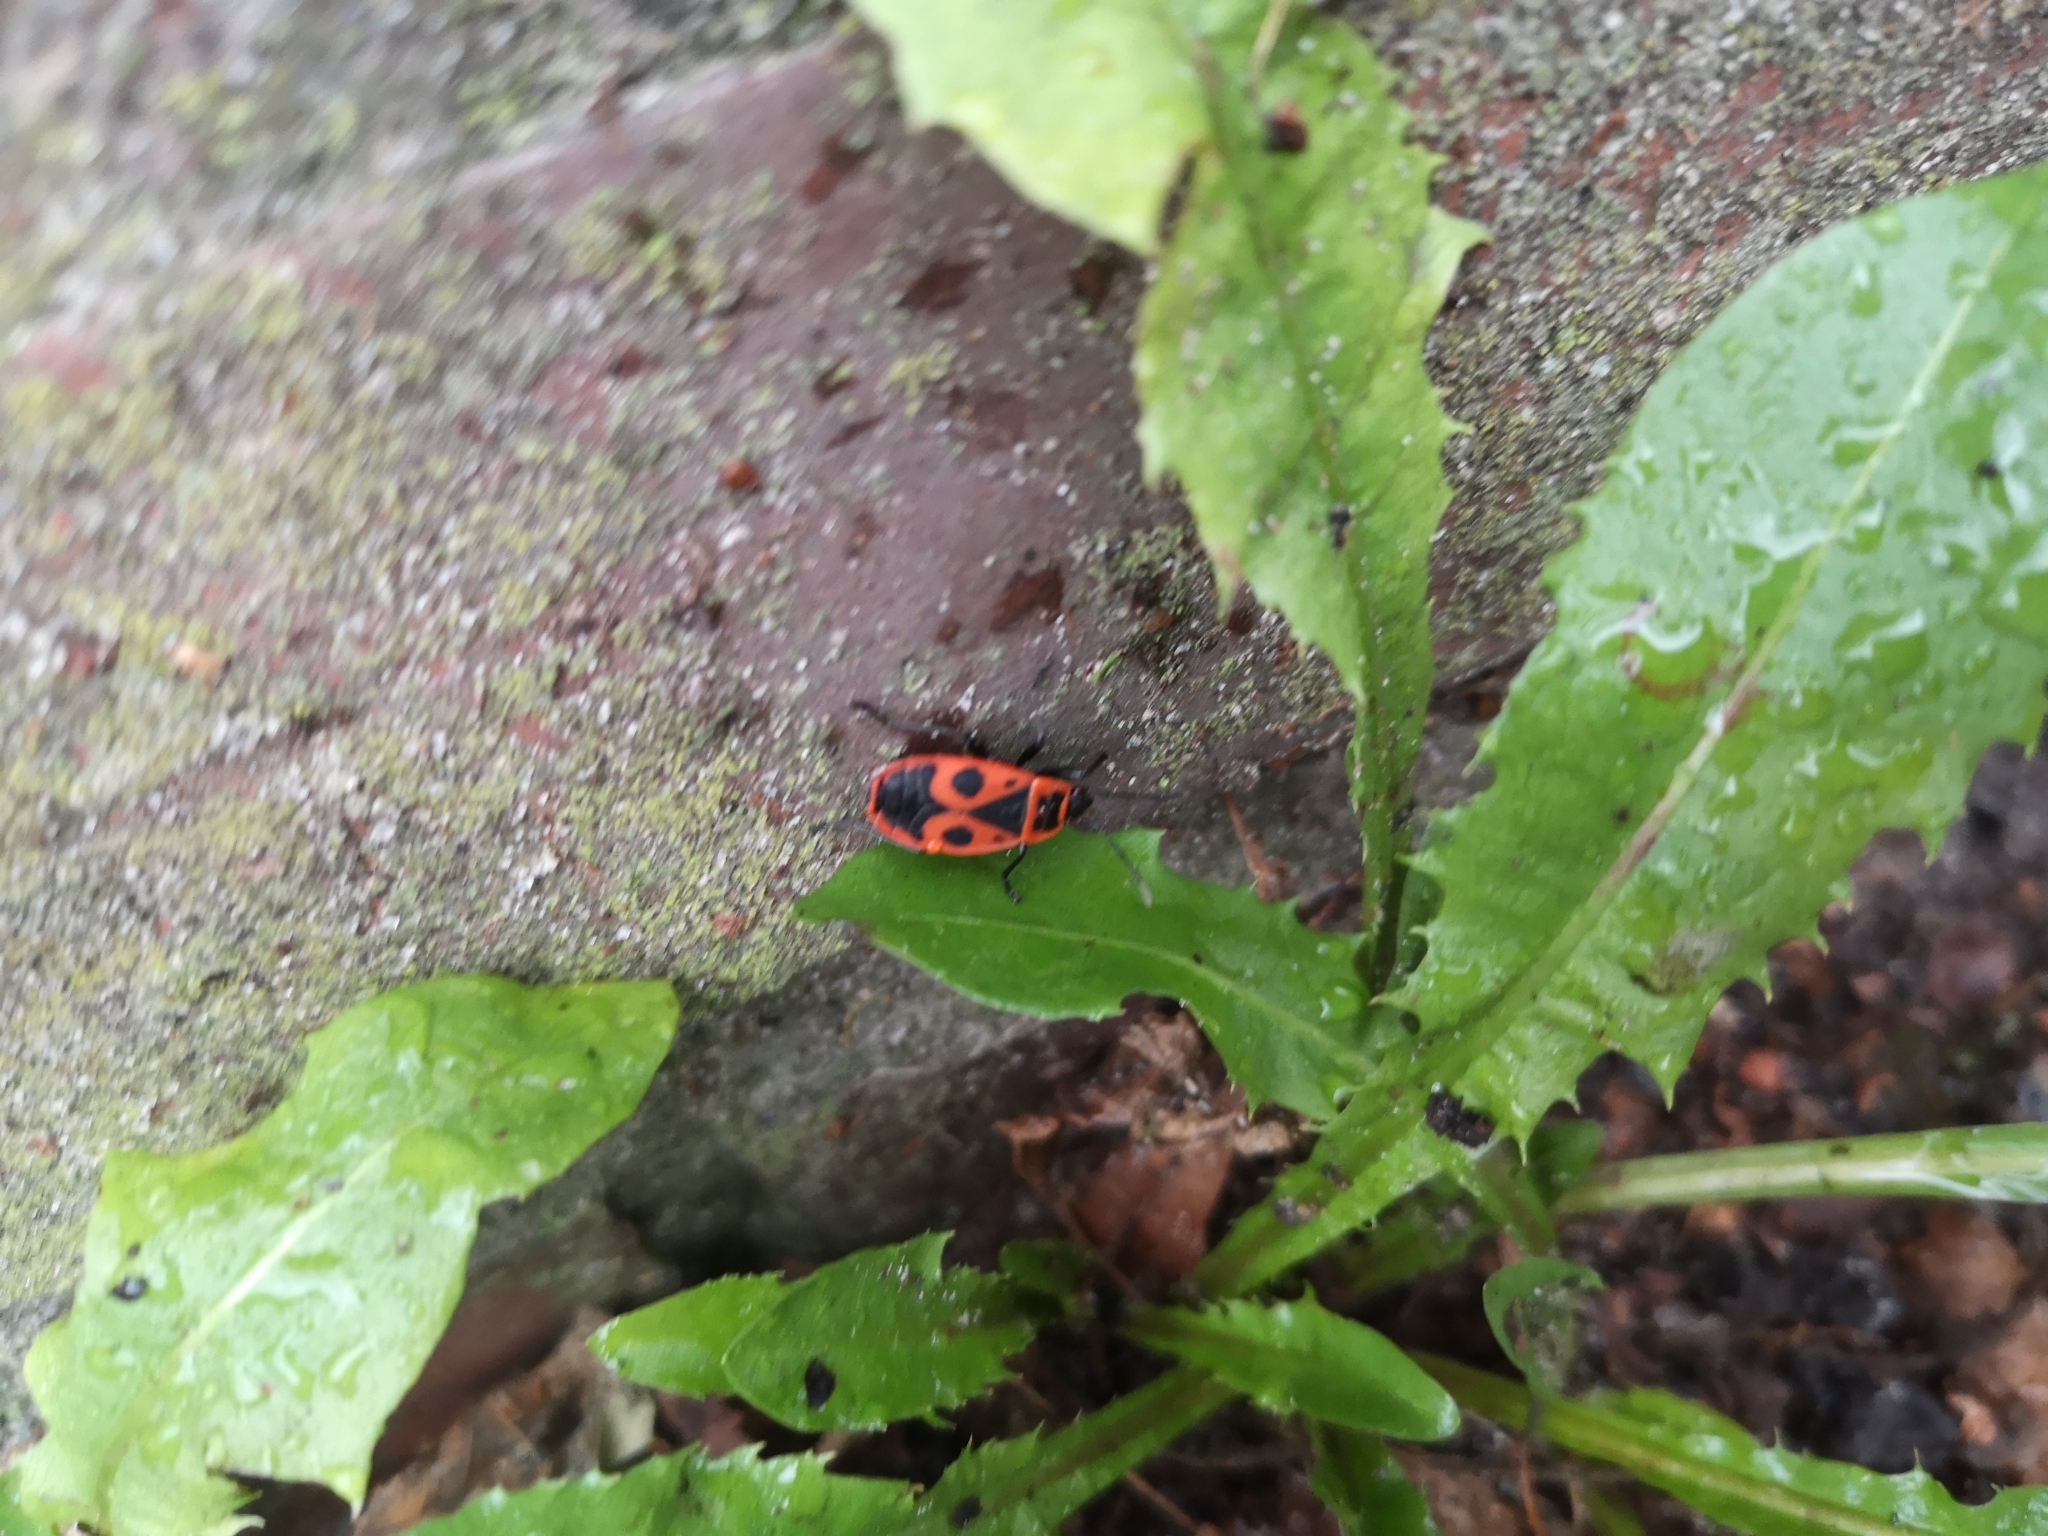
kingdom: Animalia
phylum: Arthropoda
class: Insecta
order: Hemiptera
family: Pyrrhocoridae
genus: Pyrrhocoris
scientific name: Pyrrhocoris apterus
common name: Firebug
